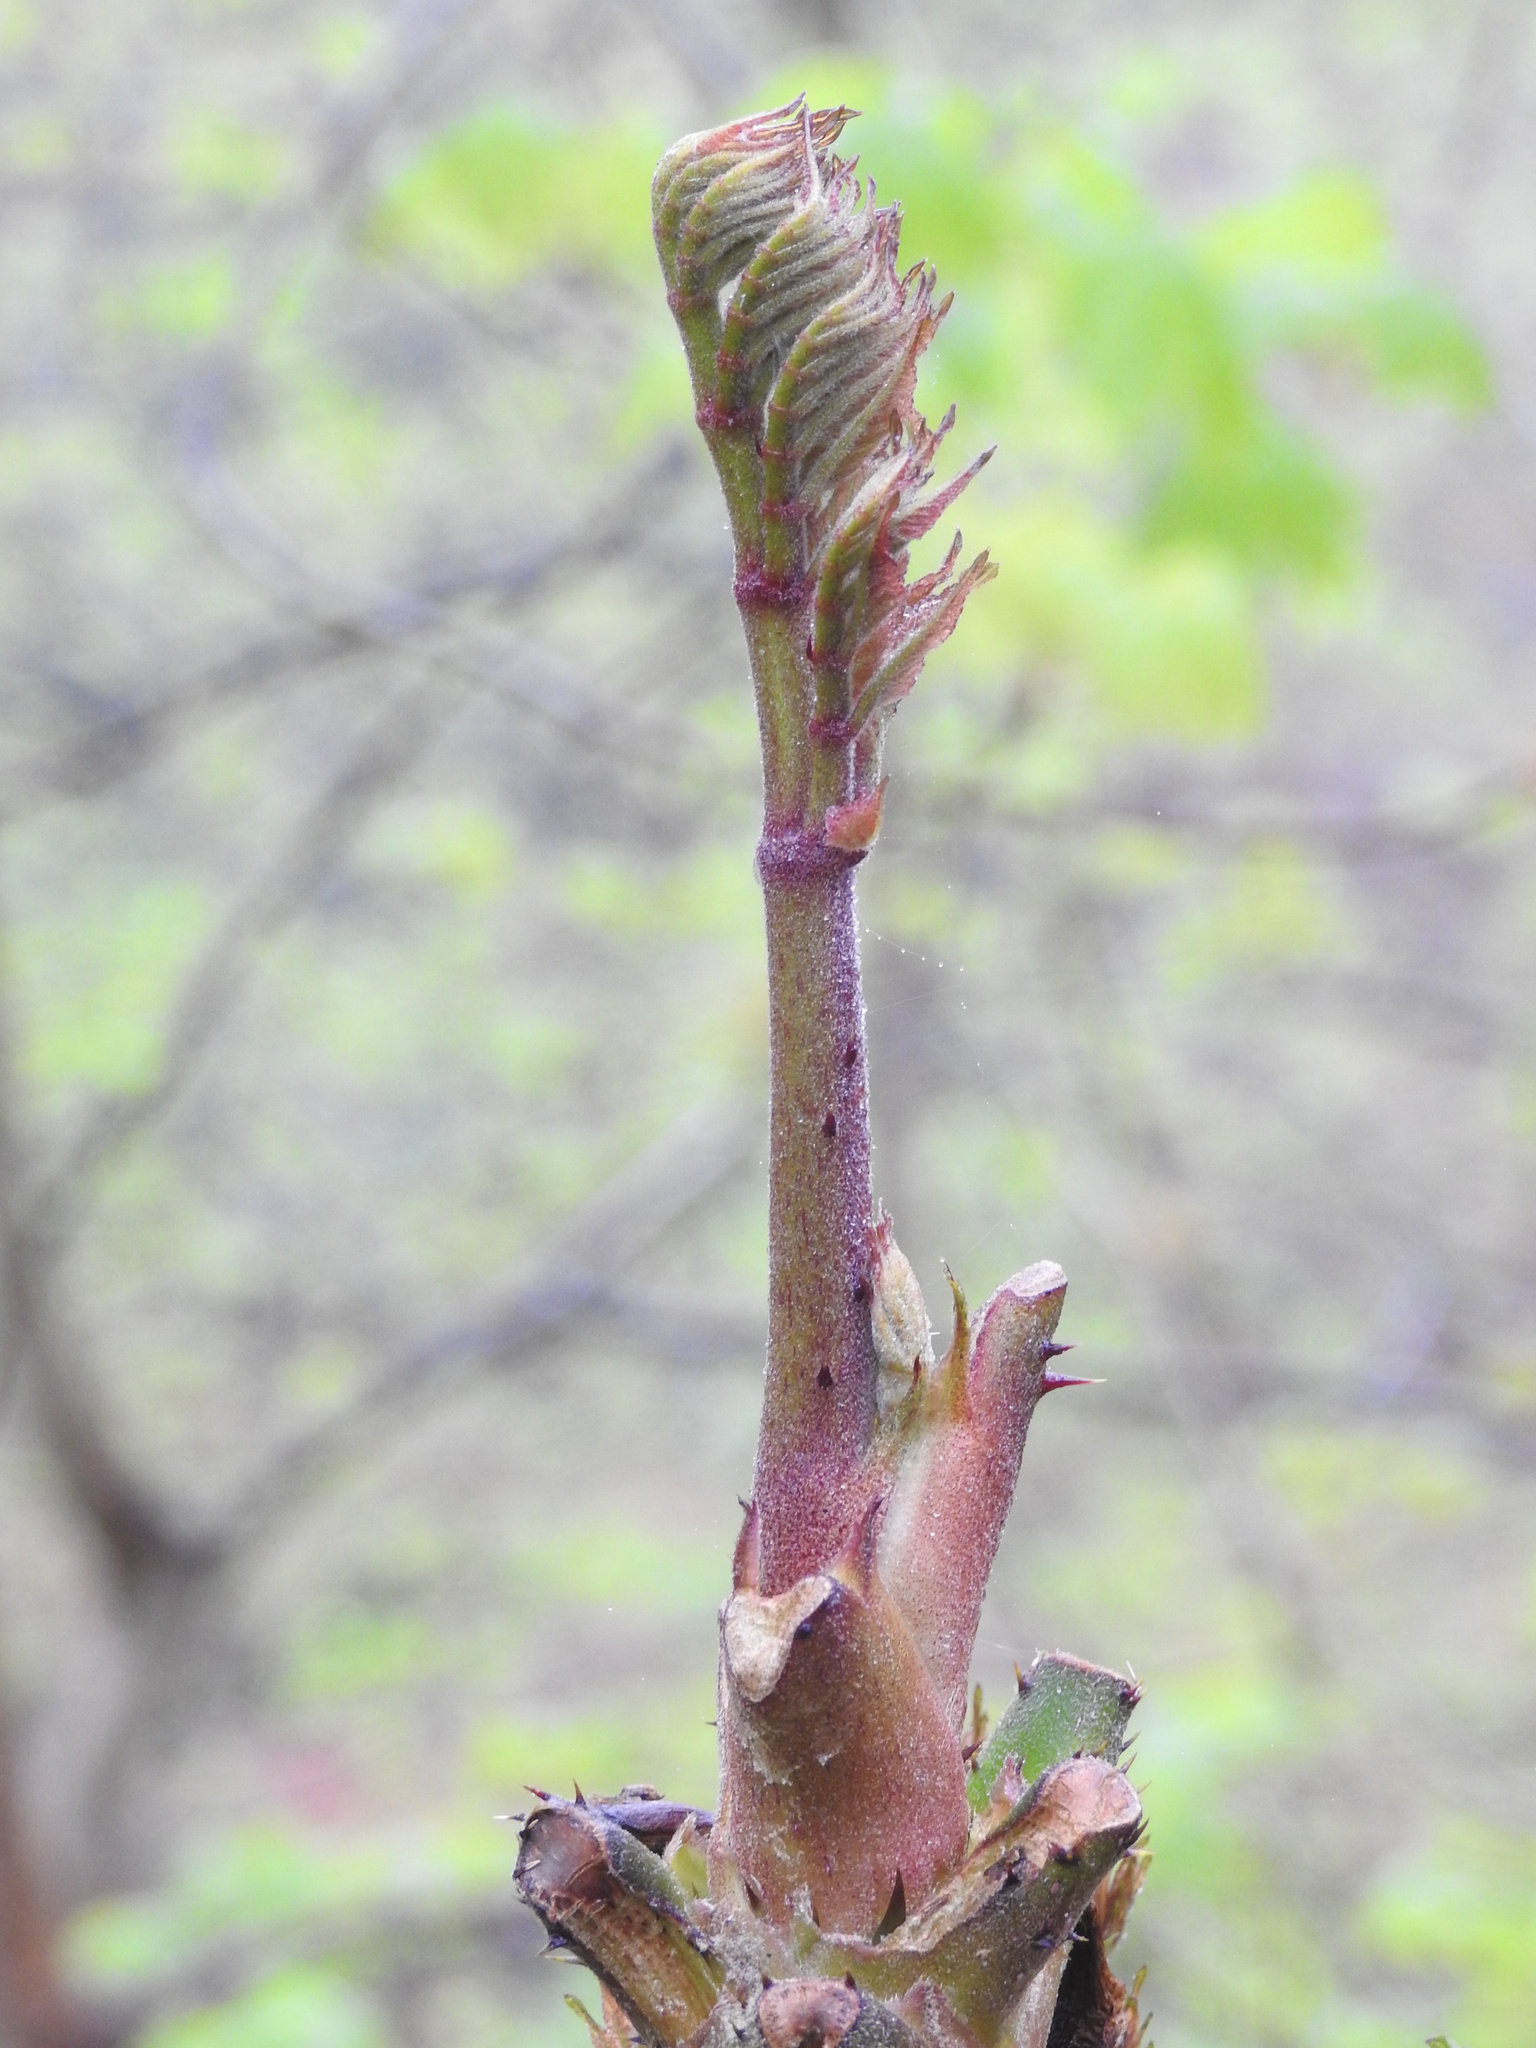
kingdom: Plantae
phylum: Tracheophyta
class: Magnoliopsida
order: Apiales
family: Araliaceae
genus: Aralia
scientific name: Aralia elata
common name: Japanese angelica-tree
